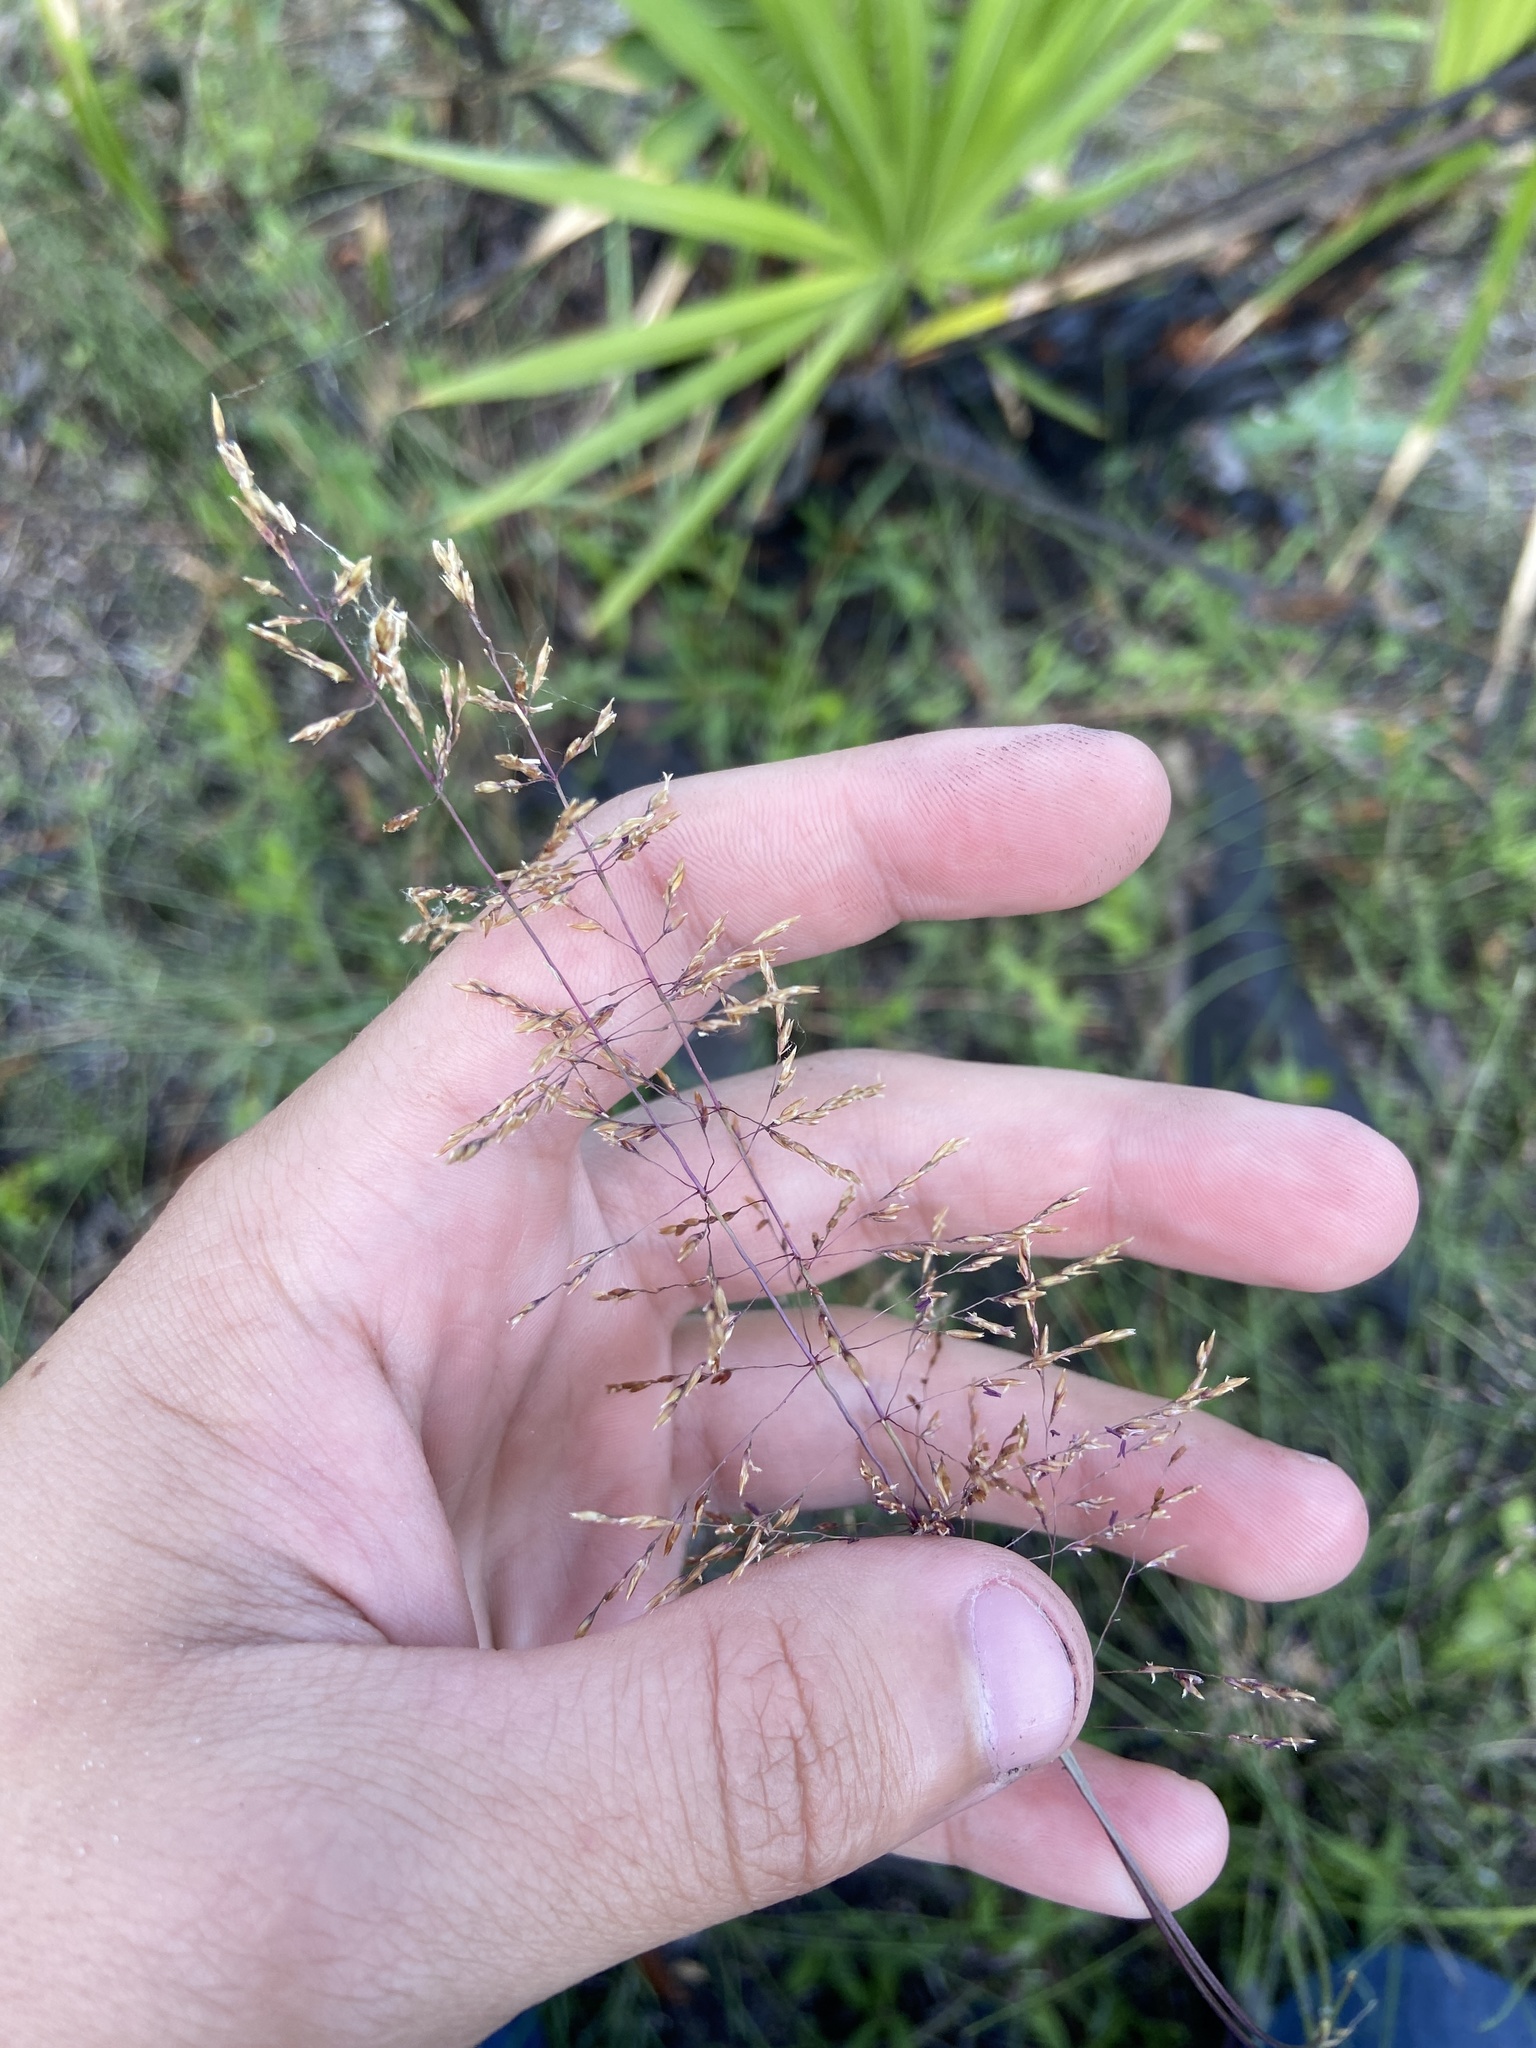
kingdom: Plantae
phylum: Tracheophyta
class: Liliopsida
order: Poales
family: Poaceae
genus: Sporobolus
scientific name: Sporobolus junceus
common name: Lizard grass
